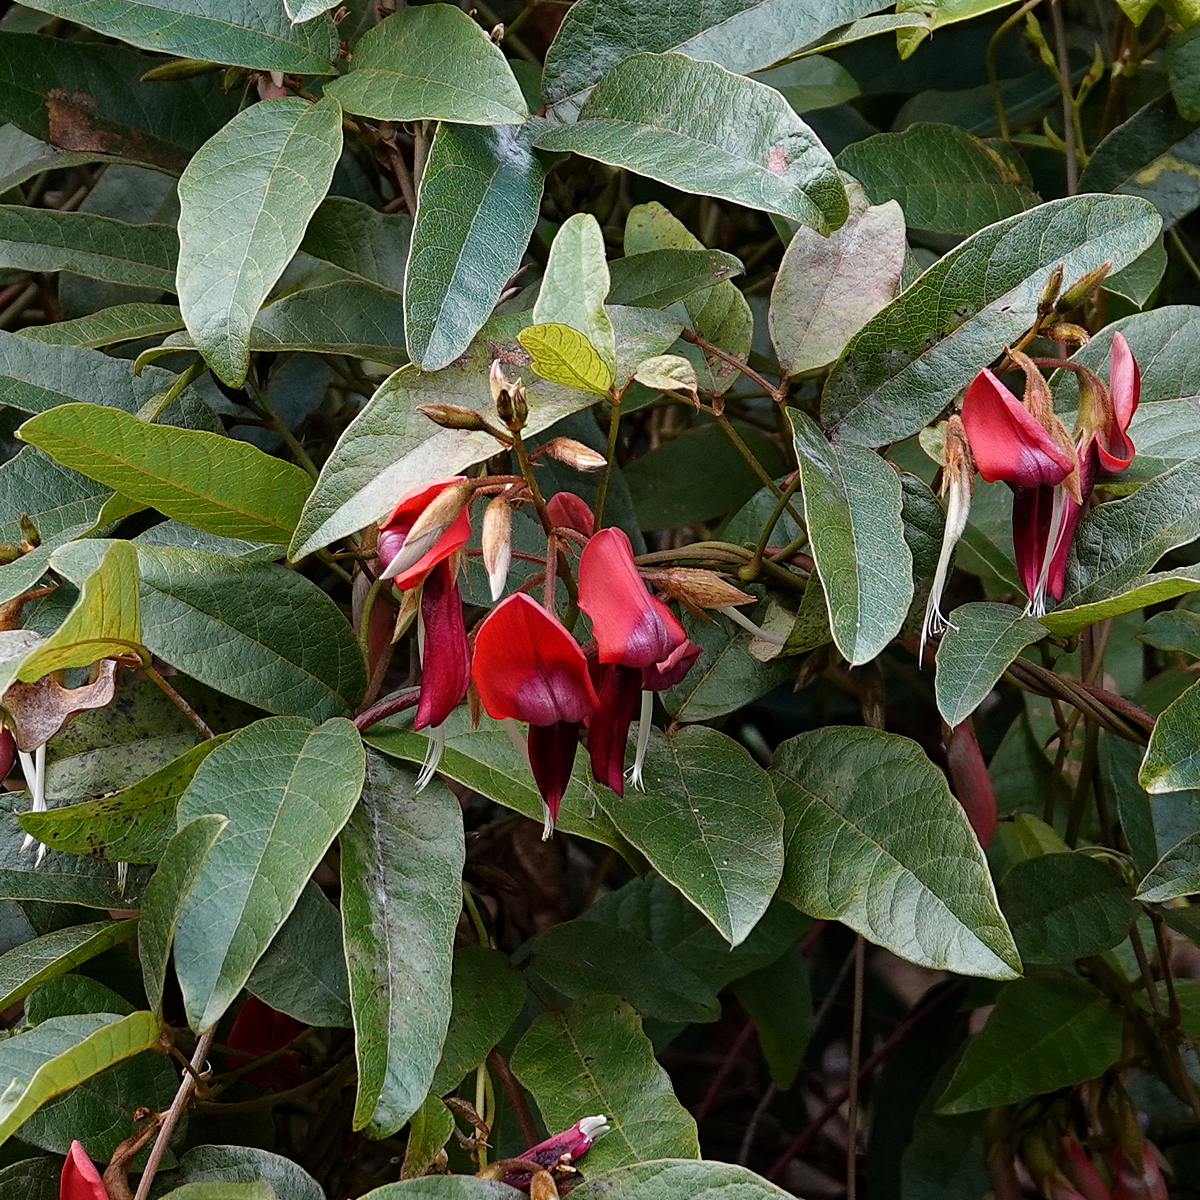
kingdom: Plantae
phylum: Tracheophyta
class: Magnoliopsida
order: Fabales
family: Fabaceae
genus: Kennedia
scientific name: Kennedia rubicunda
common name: Red kennedy-pea
